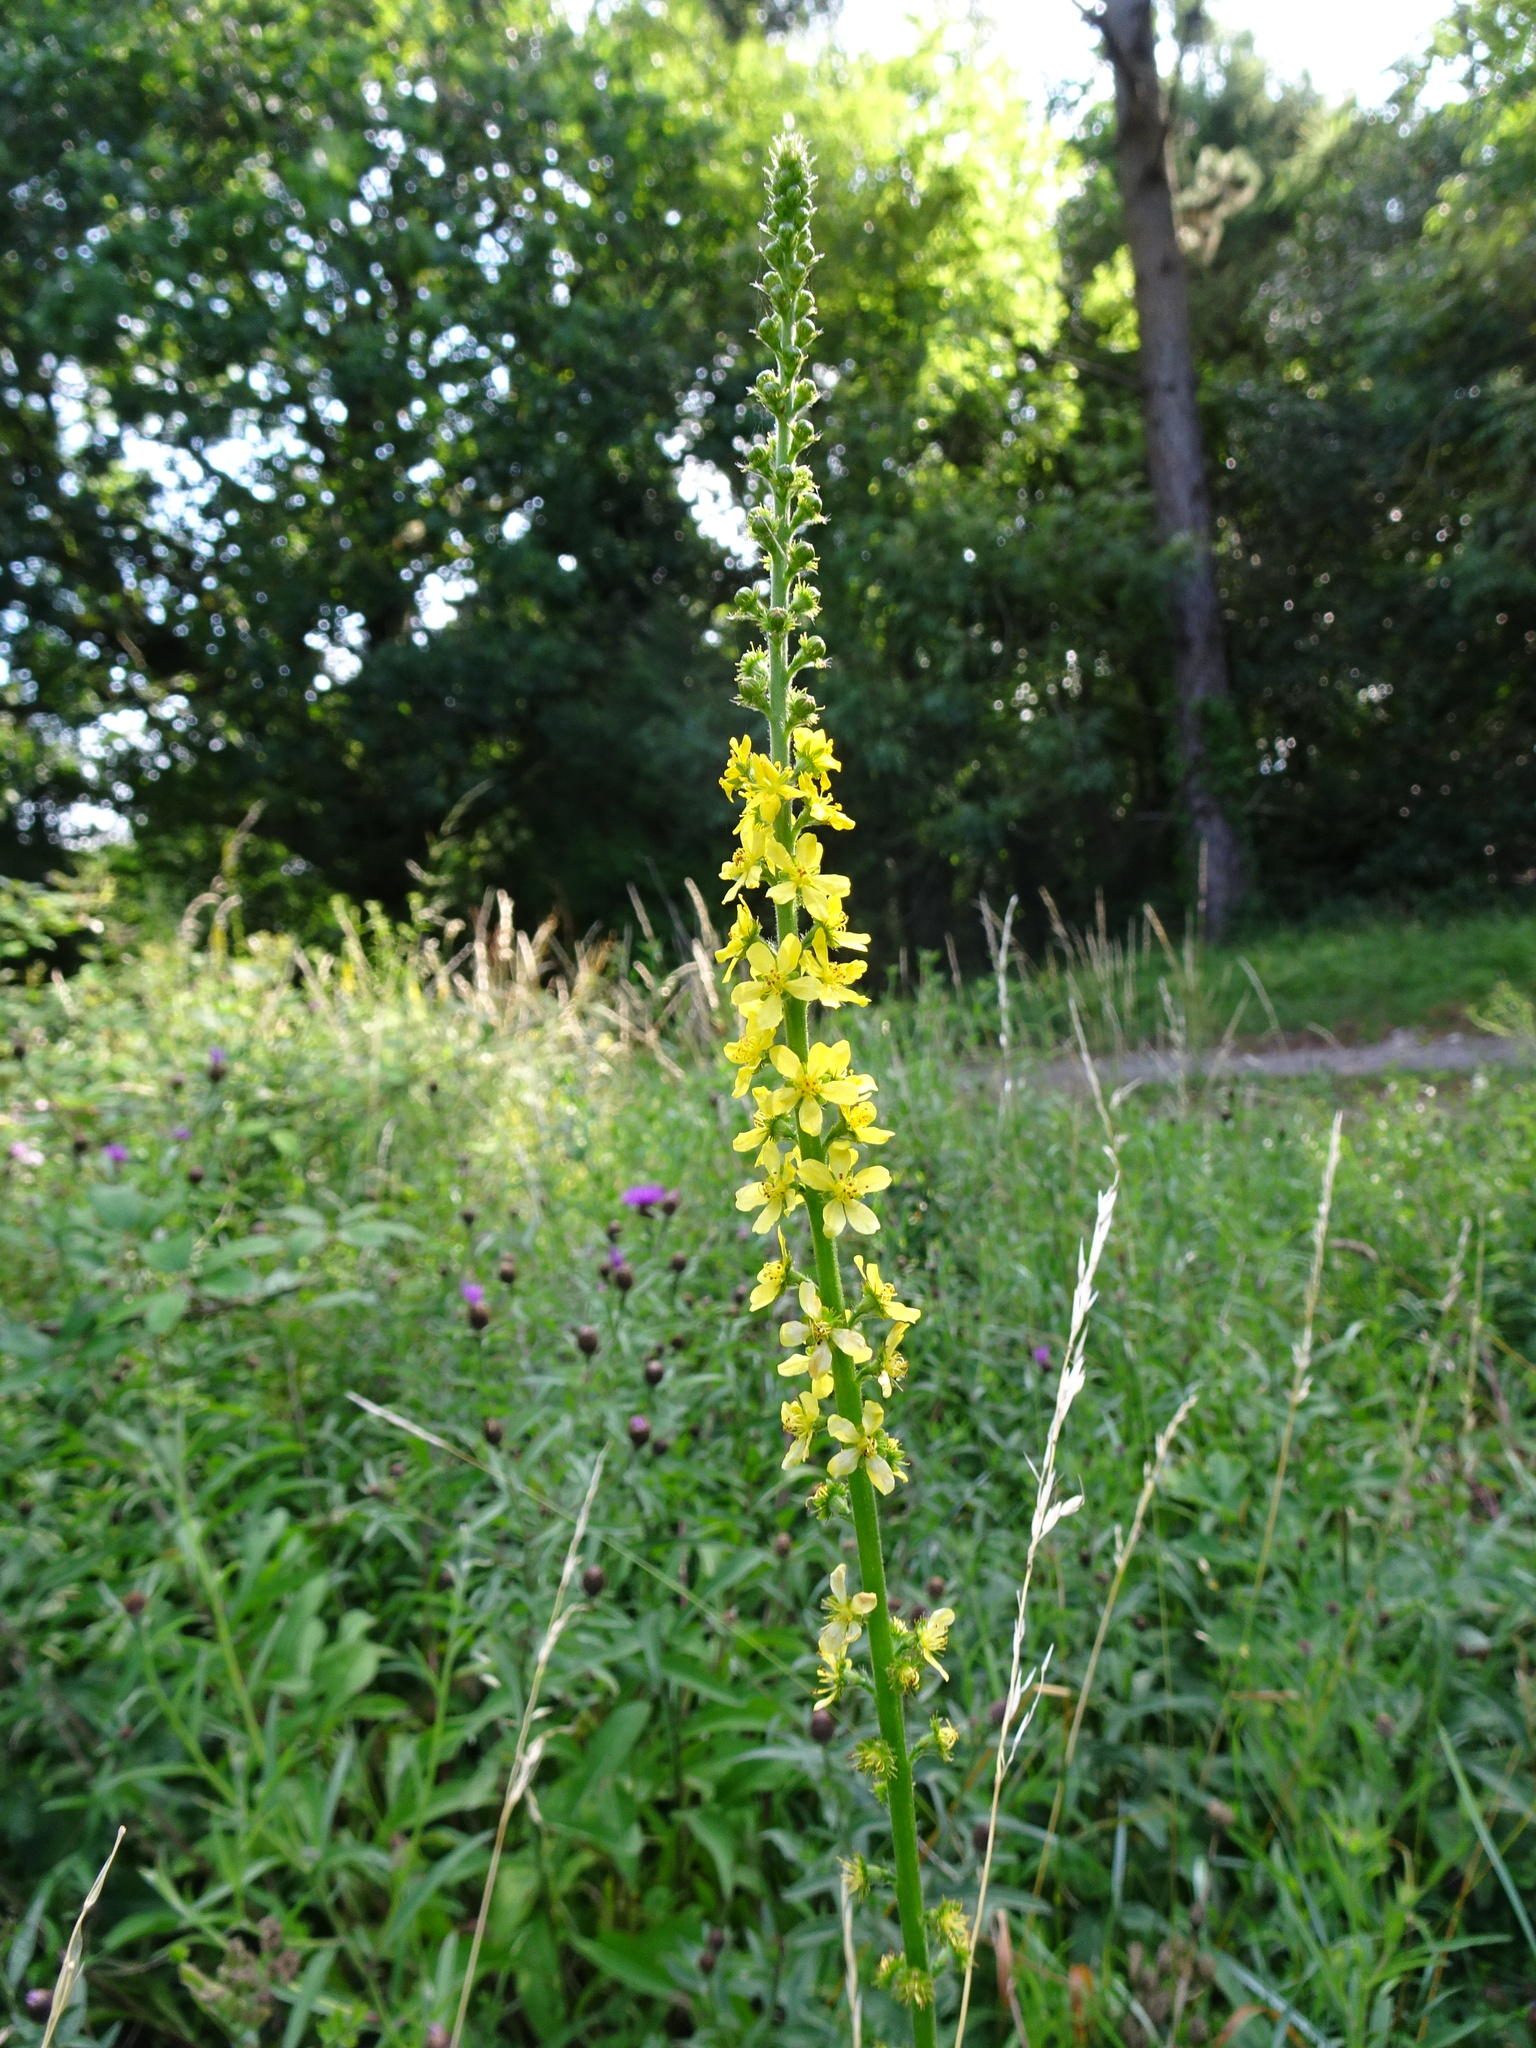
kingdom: Plantae
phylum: Tracheophyta
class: Magnoliopsida
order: Rosales
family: Rosaceae
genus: Agrimonia
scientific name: Agrimonia eupatoria
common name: Agrimony
